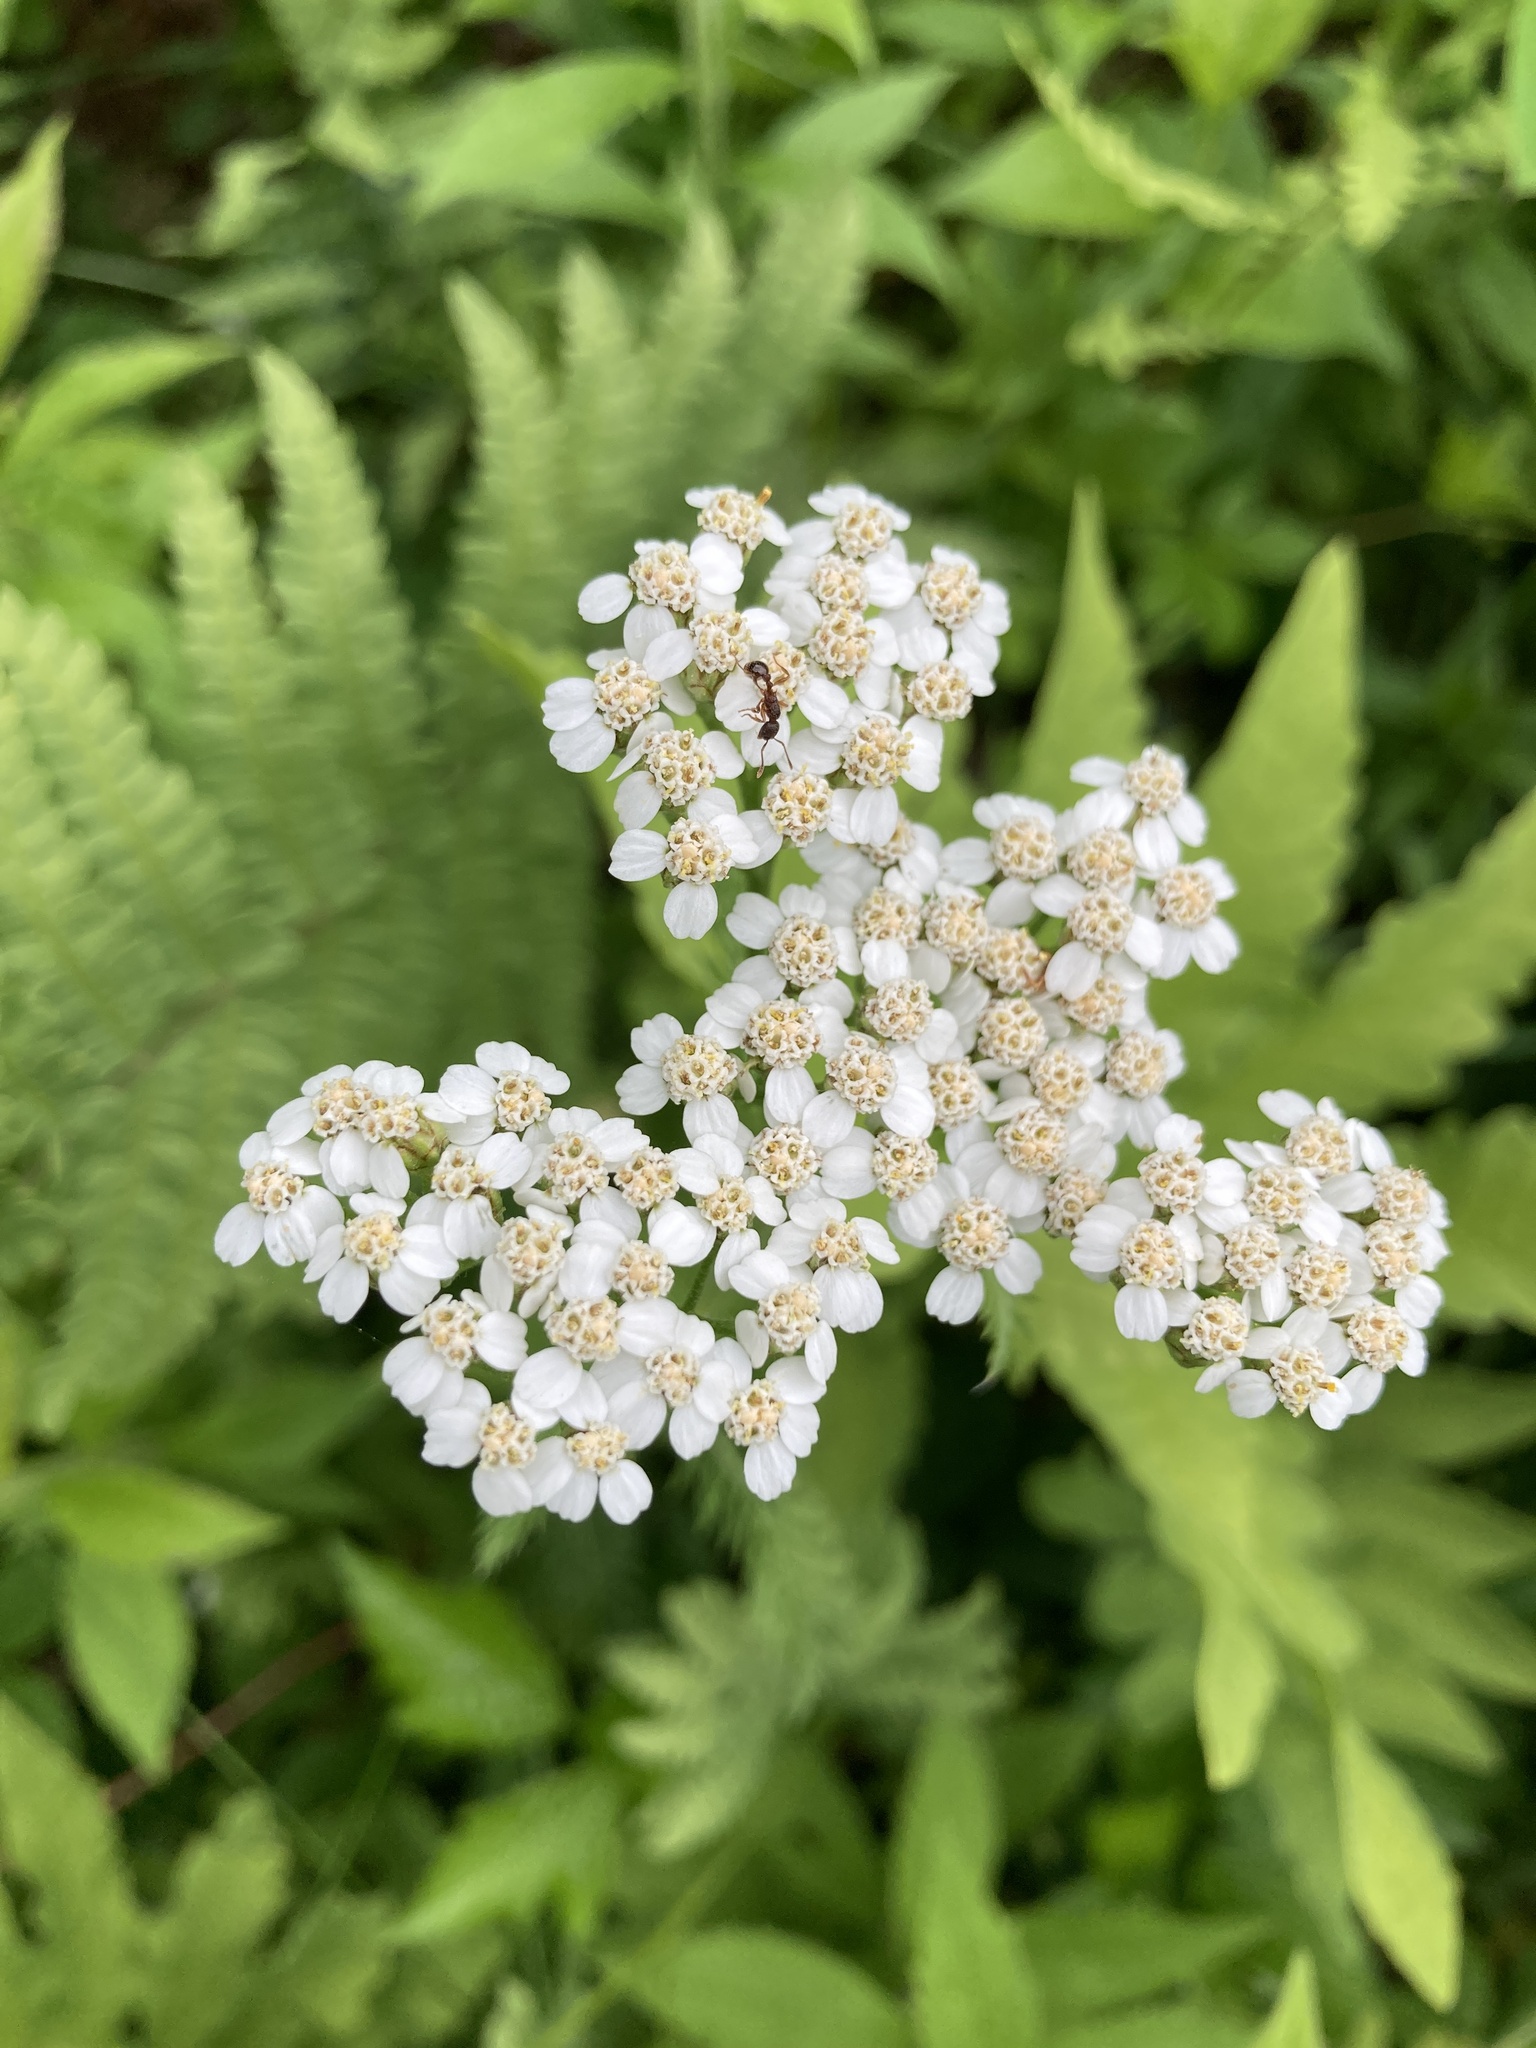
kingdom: Plantae
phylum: Tracheophyta
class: Magnoliopsida
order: Asterales
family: Asteraceae
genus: Achillea
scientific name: Achillea millefolium
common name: Yarrow
